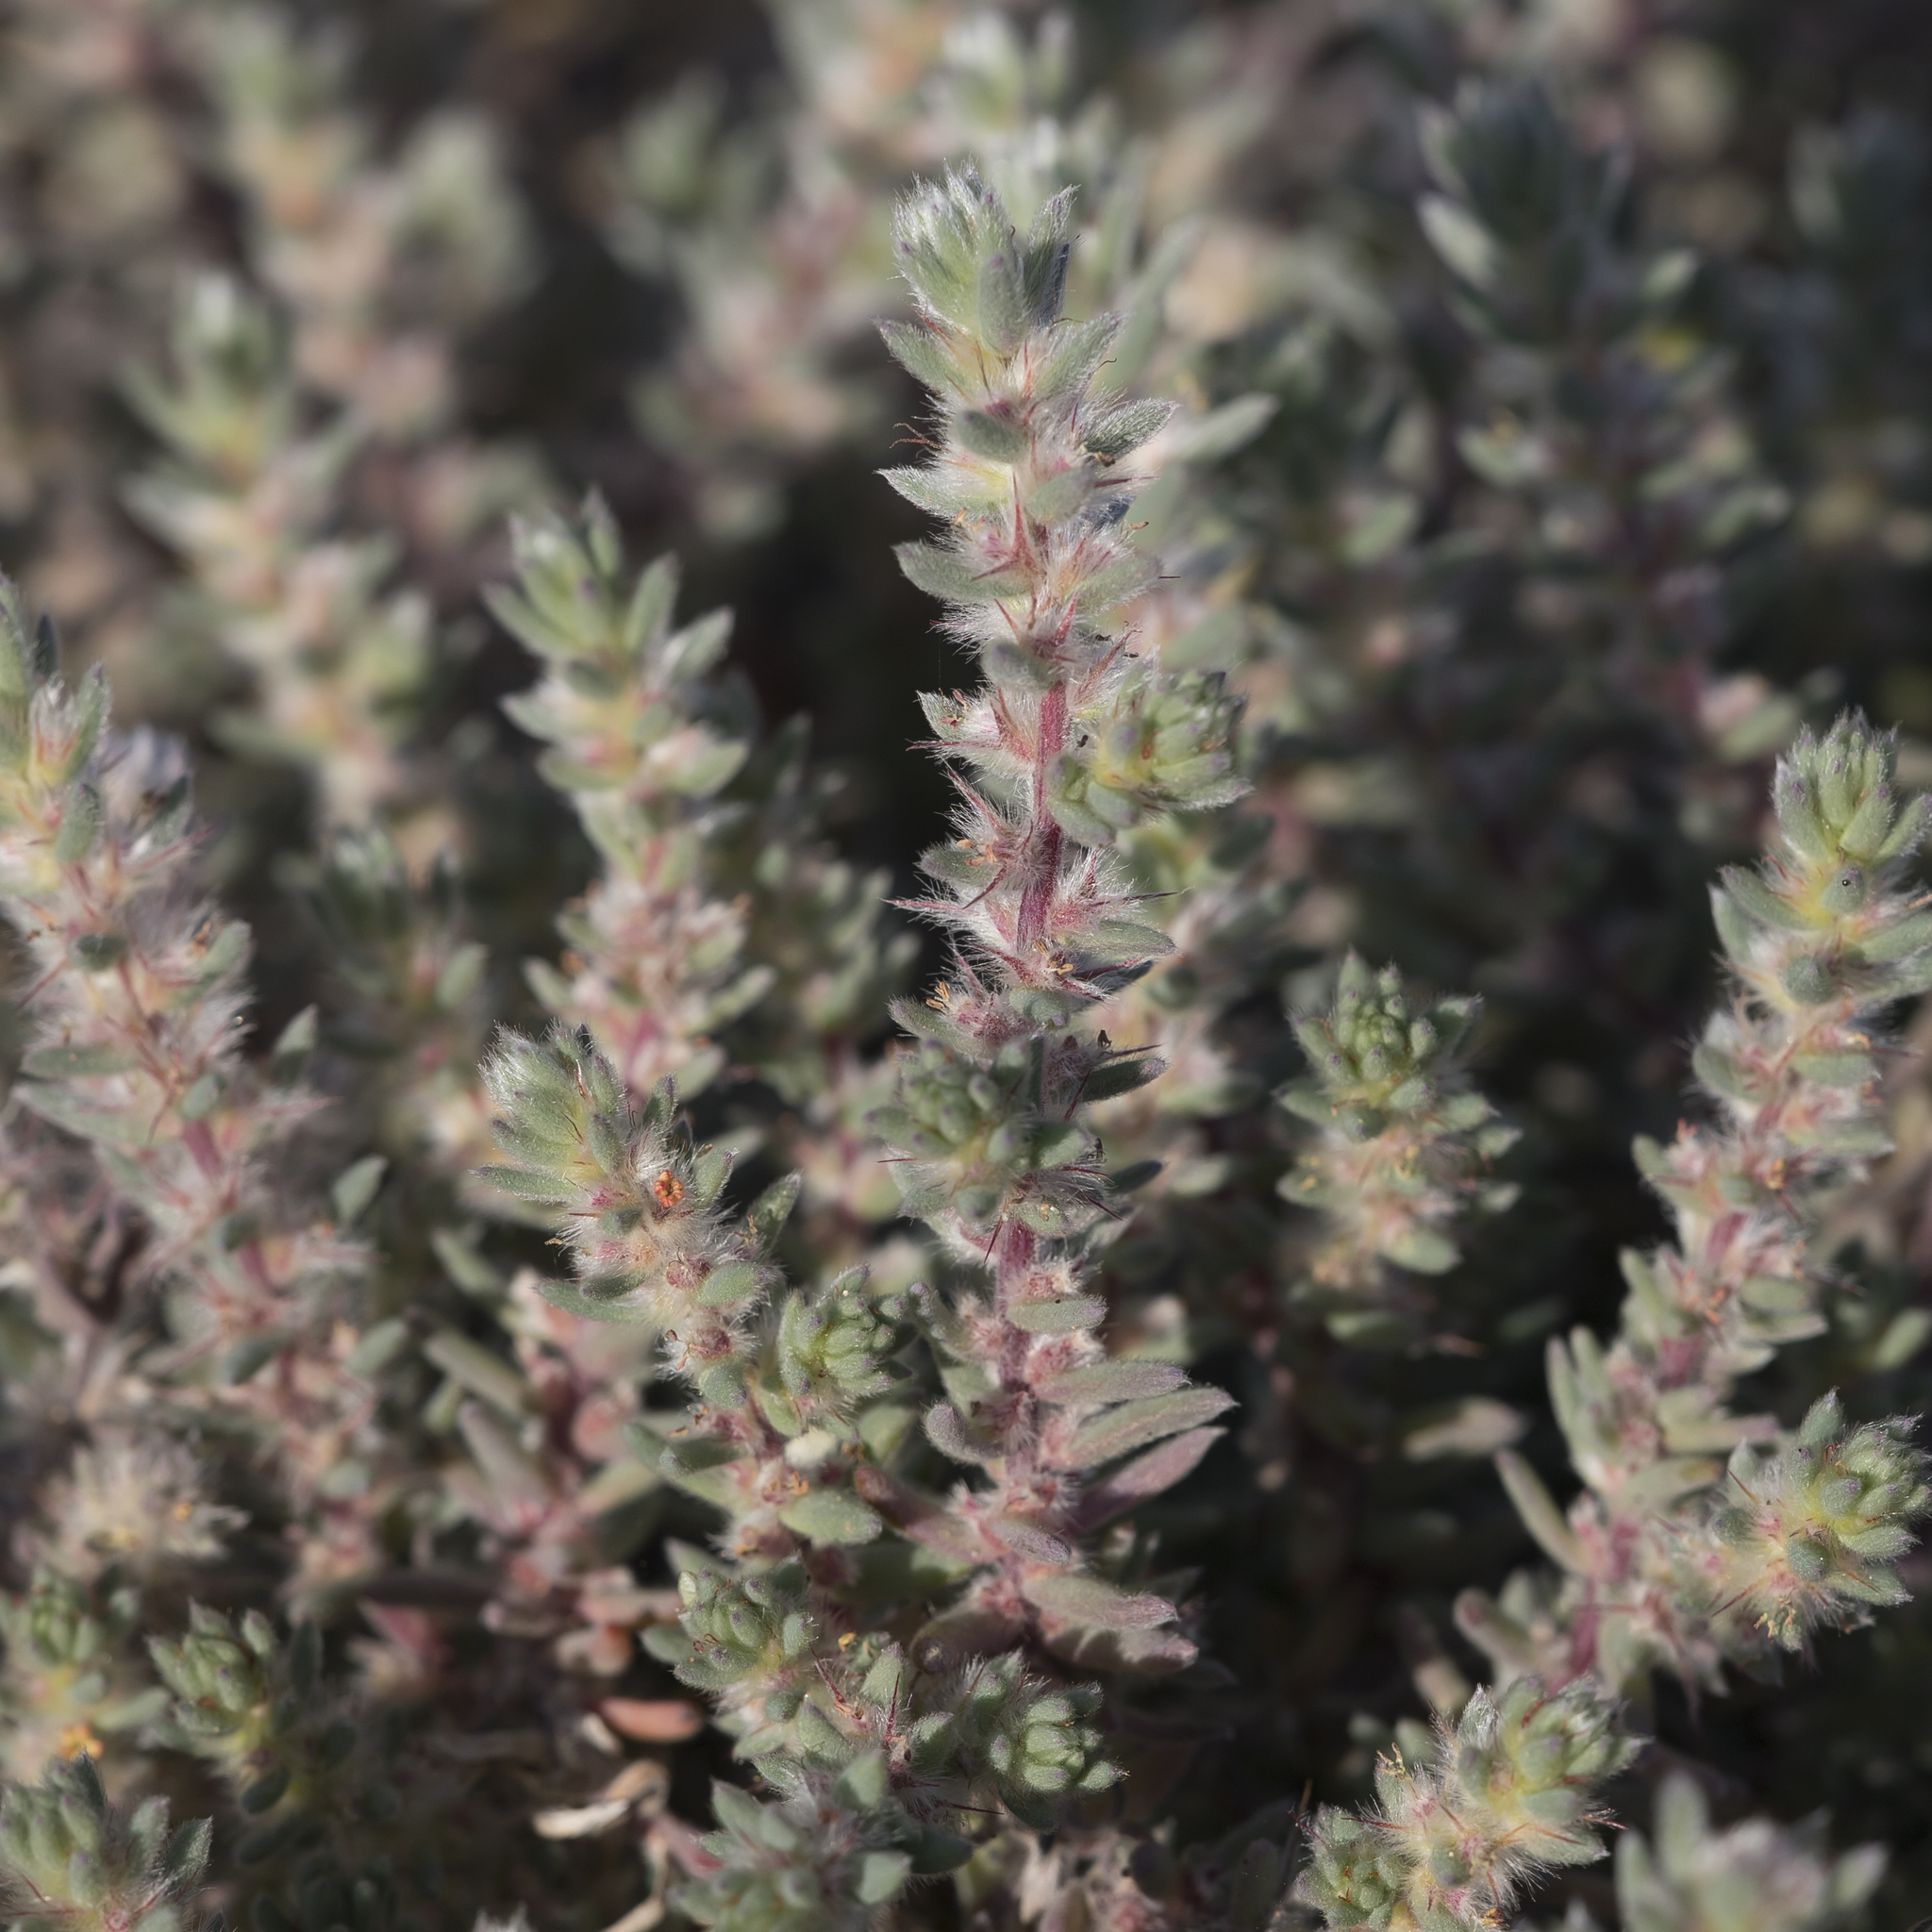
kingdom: Plantae
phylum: Tracheophyta
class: Magnoliopsida
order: Caryophyllales
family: Amaranthaceae
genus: Sclerolaena
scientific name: Sclerolaena lanicuspis
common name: Copperbur
